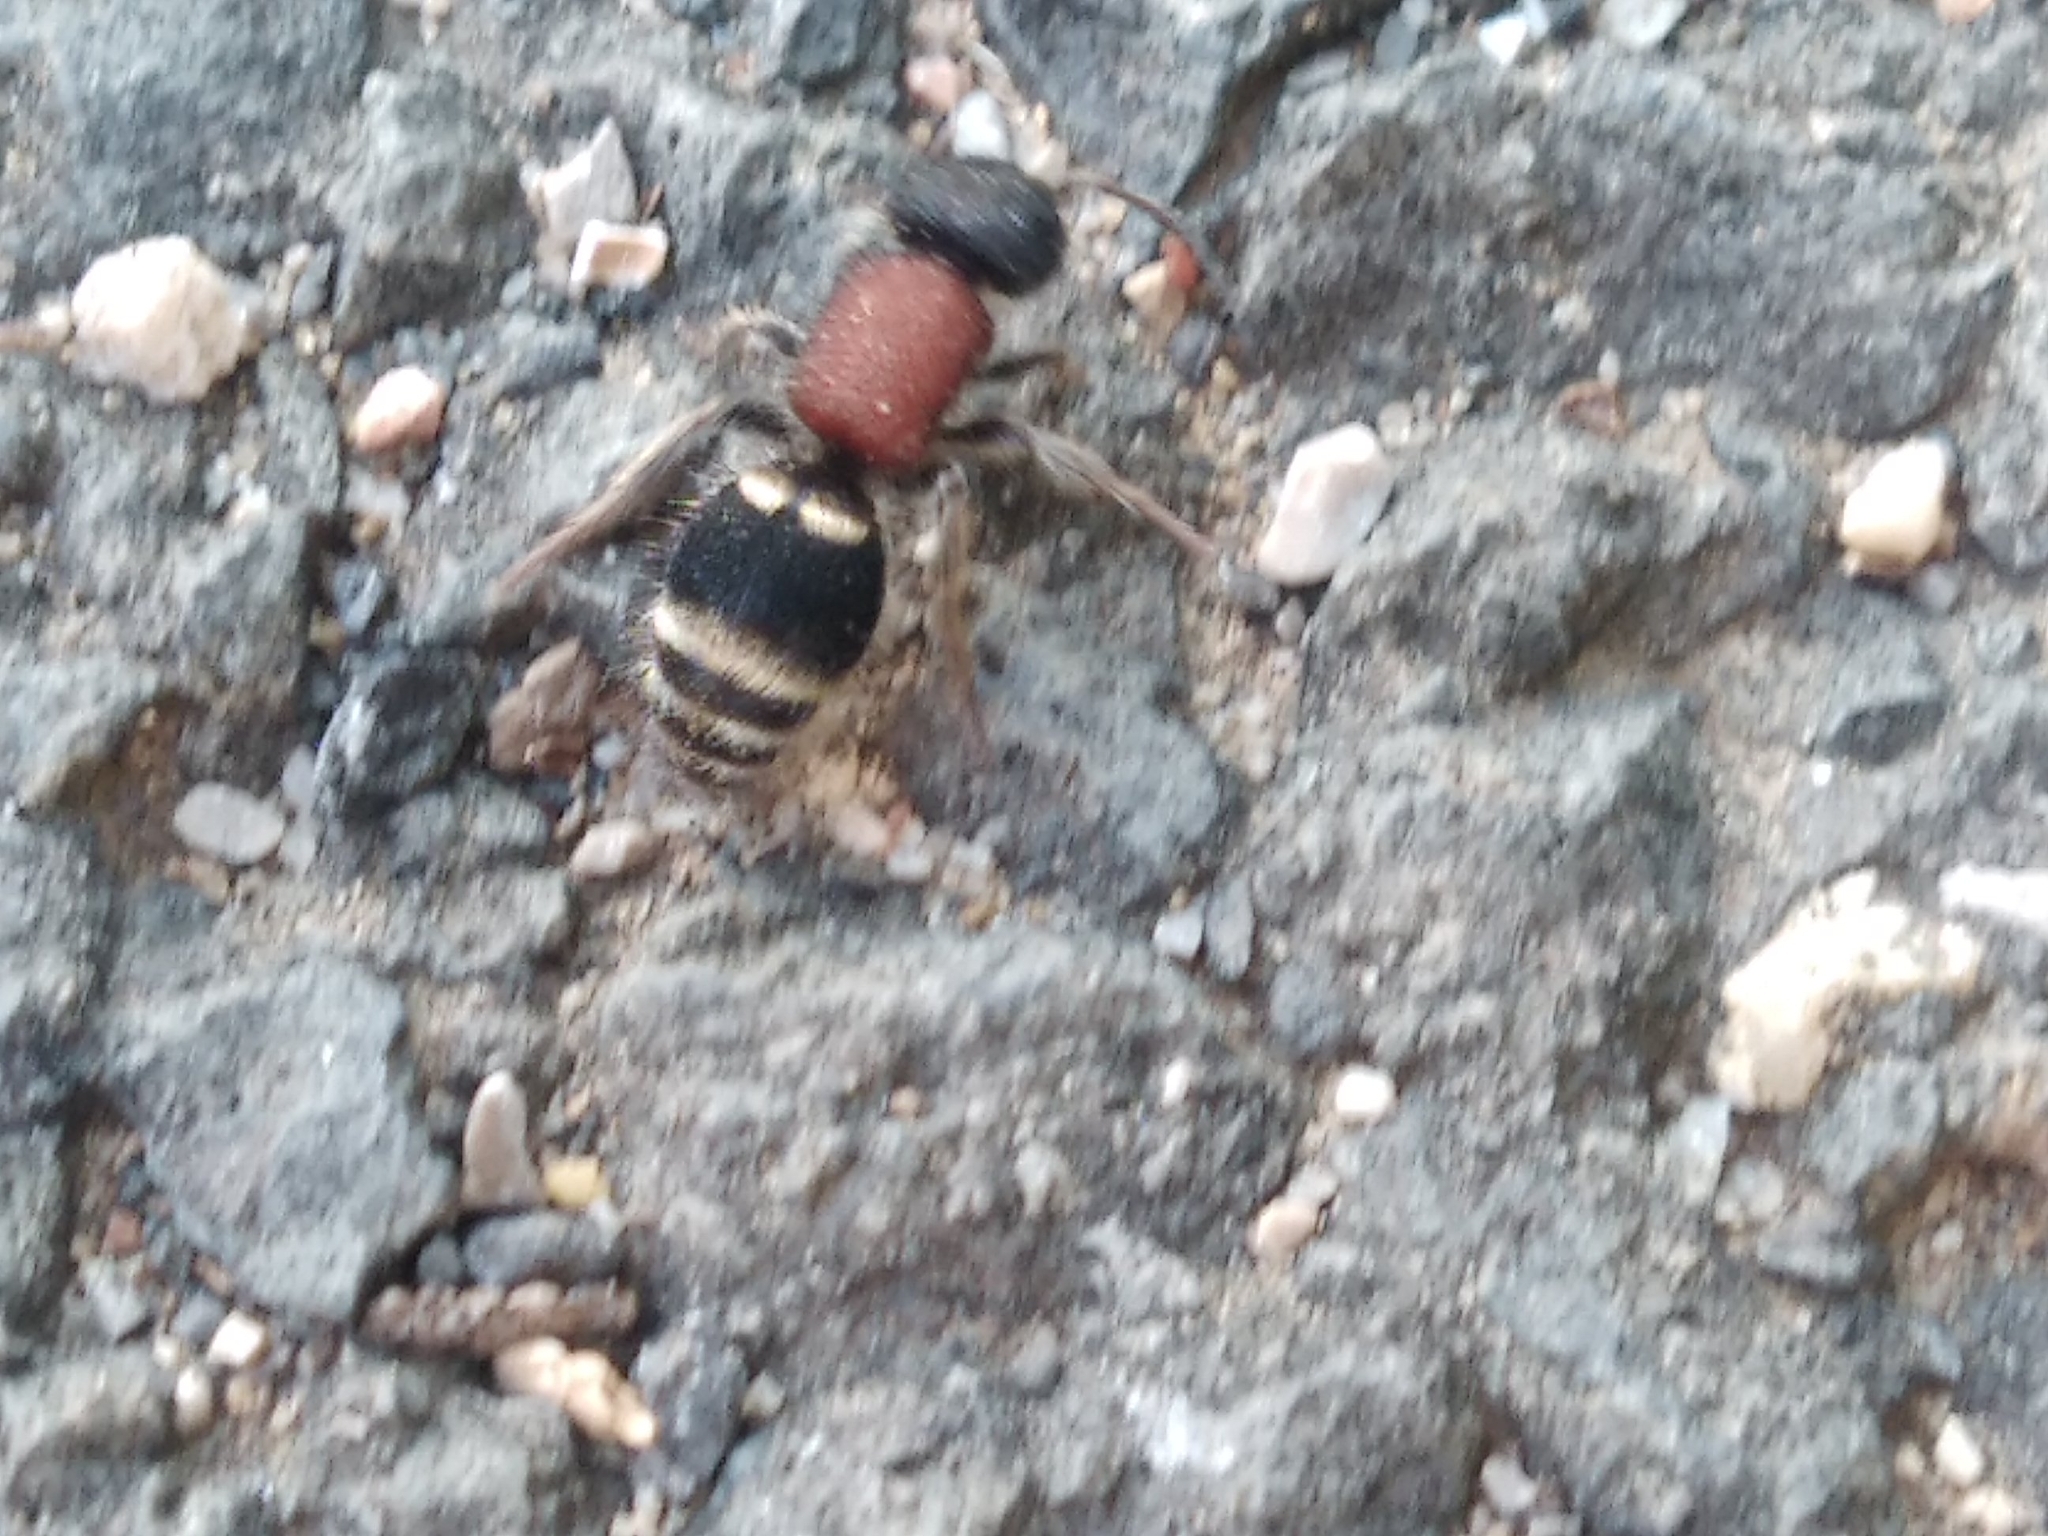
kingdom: Animalia
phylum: Arthropoda
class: Insecta
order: Hymenoptera
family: Mutillidae
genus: Tropidotilla
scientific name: Tropidotilla litoralis
